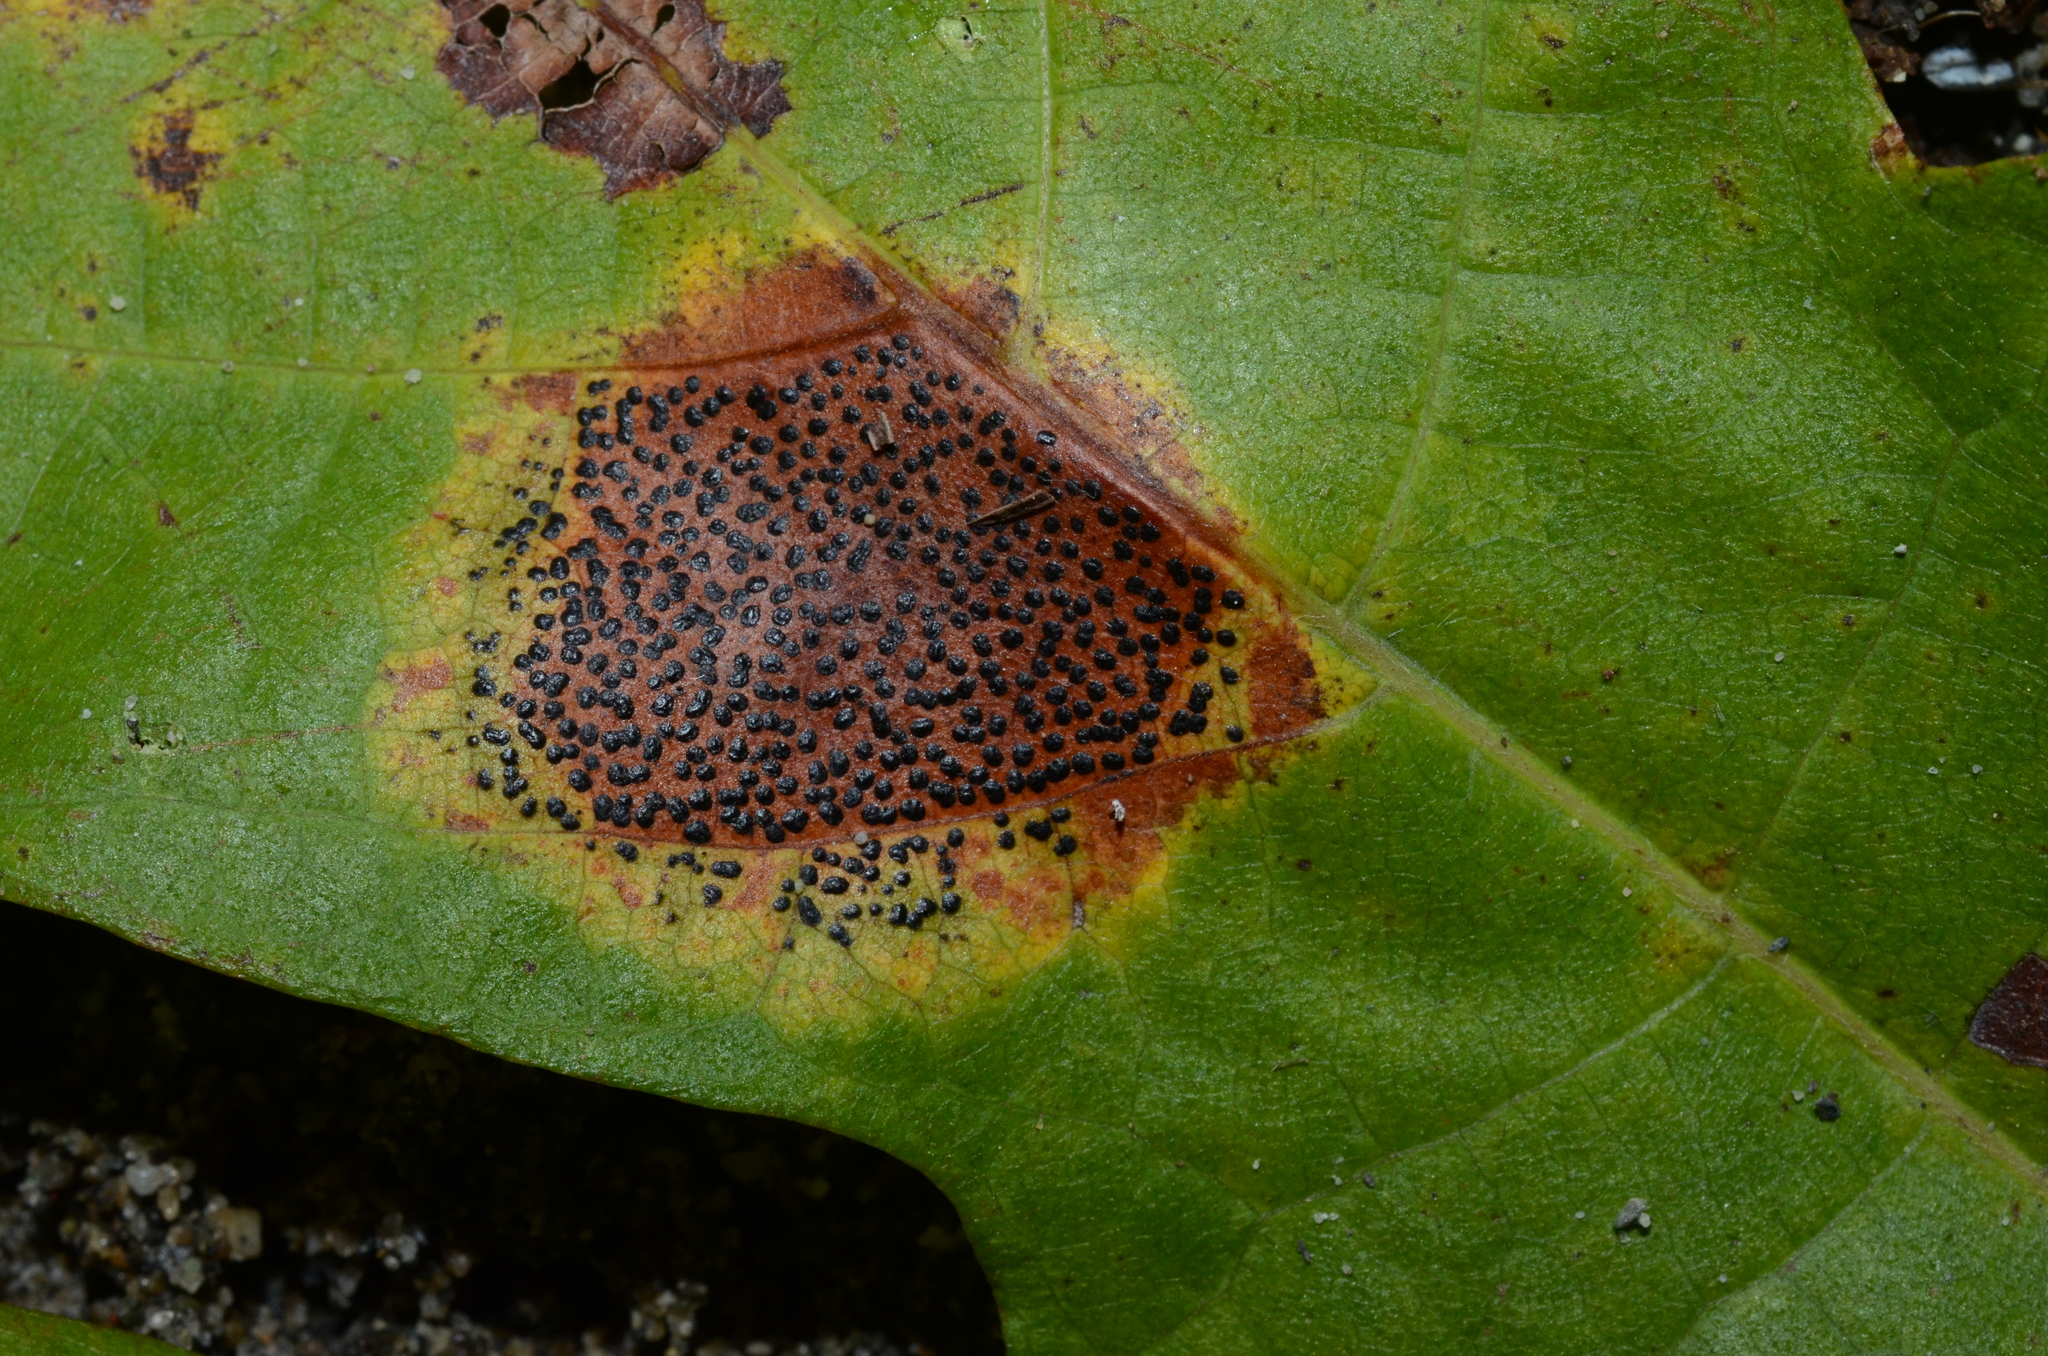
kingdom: Fungi
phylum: Ascomycota
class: Leotiomycetes
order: Rhytismatales
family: Rhytismataceae
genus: Rhytisma
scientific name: Rhytisma punctatum
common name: Speckled tar spot
